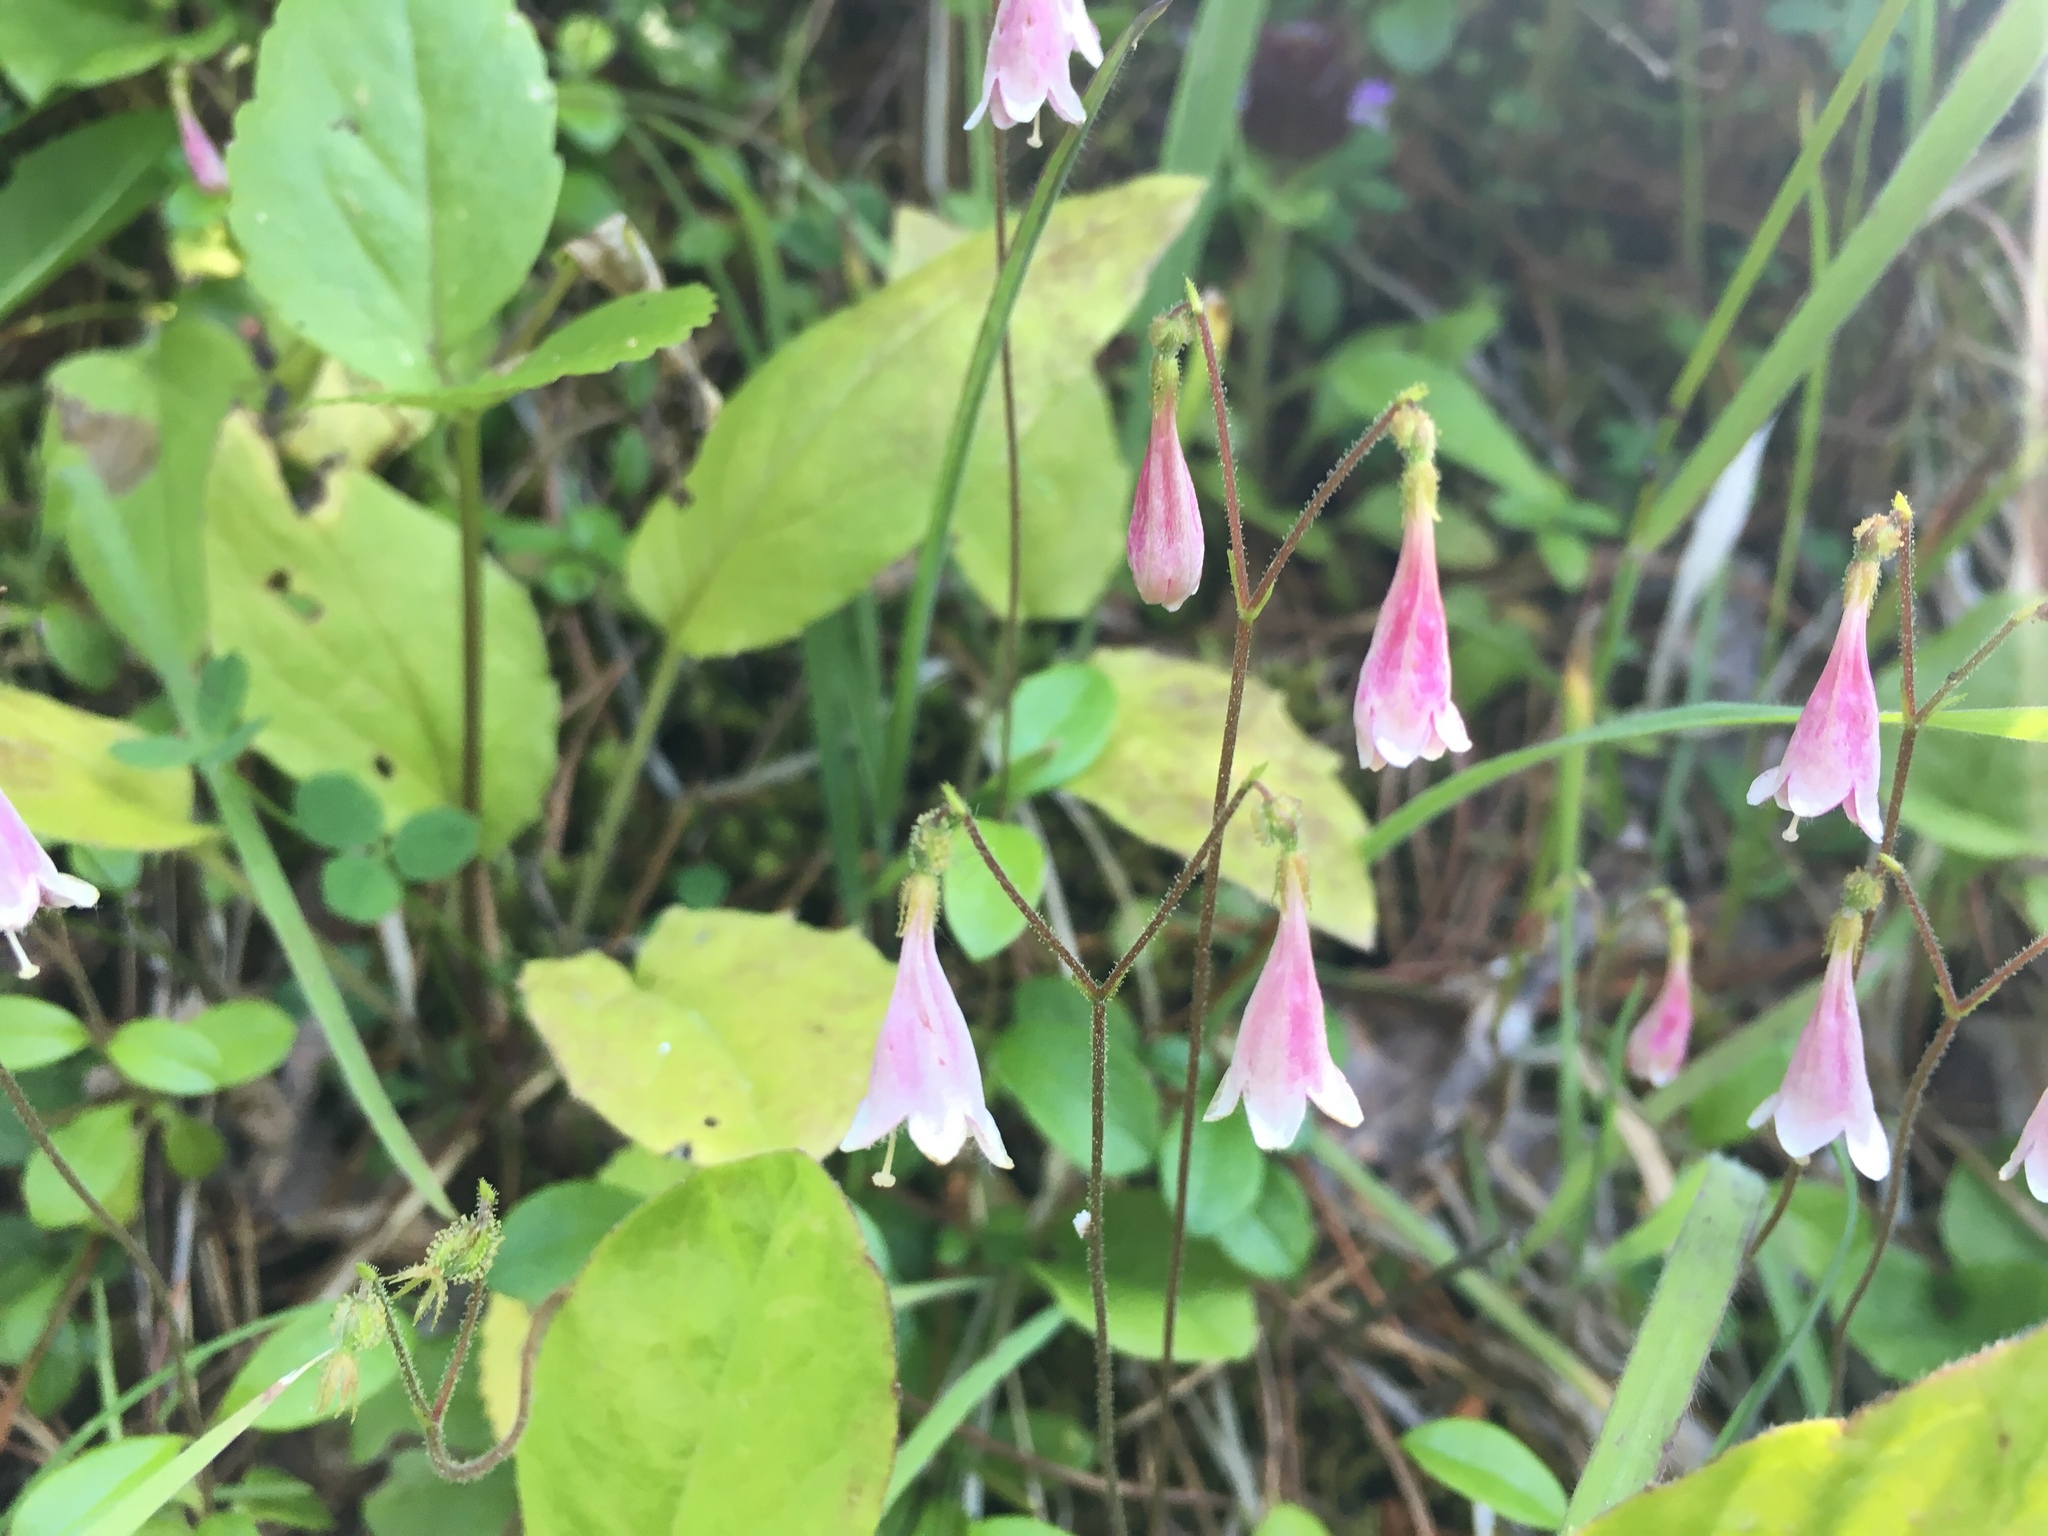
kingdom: Plantae
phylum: Tracheophyta
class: Magnoliopsida
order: Dipsacales
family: Caprifoliaceae
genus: Linnaea
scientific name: Linnaea borealis
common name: Twinflower
